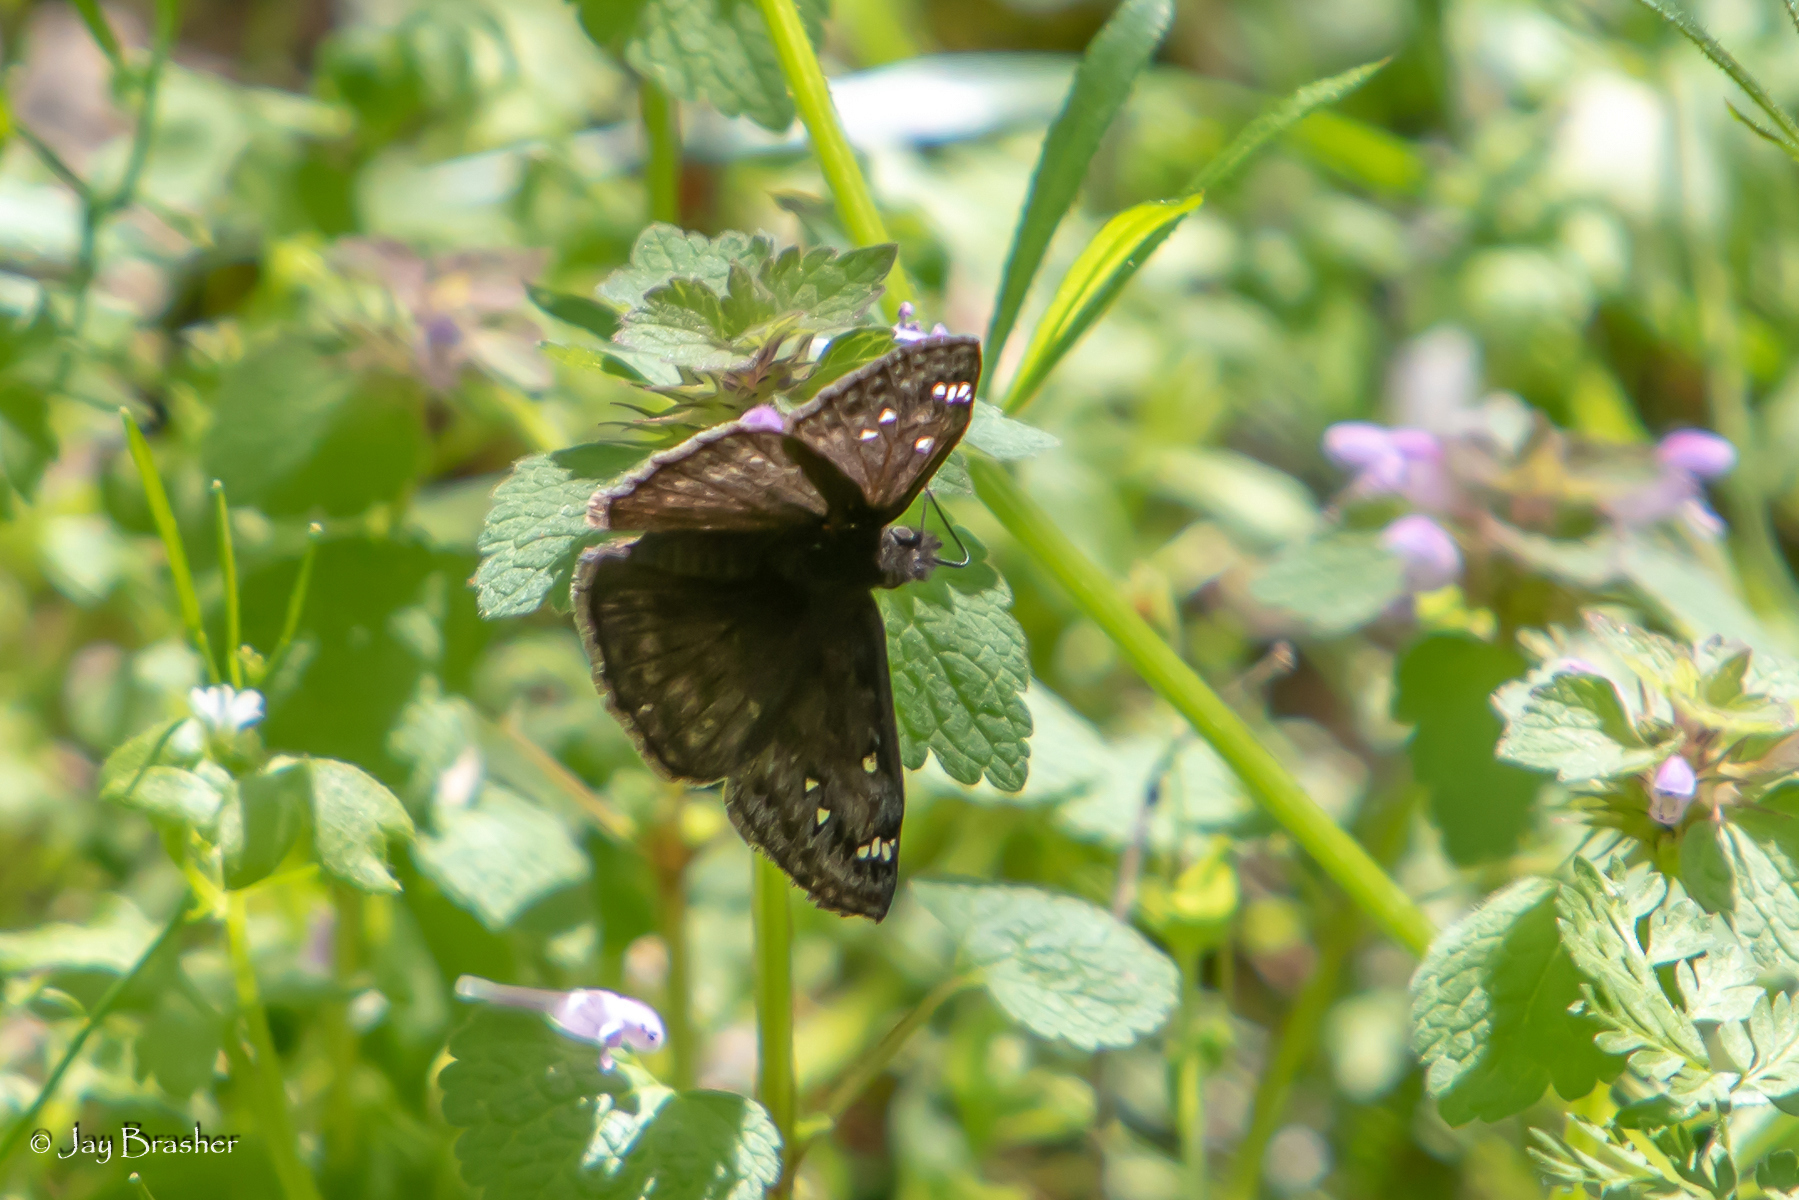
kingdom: Animalia
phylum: Arthropoda
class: Insecta
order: Lepidoptera
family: Hesperiidae
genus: Erynnis
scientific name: Erynnis horatius
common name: Horace's duskywing
